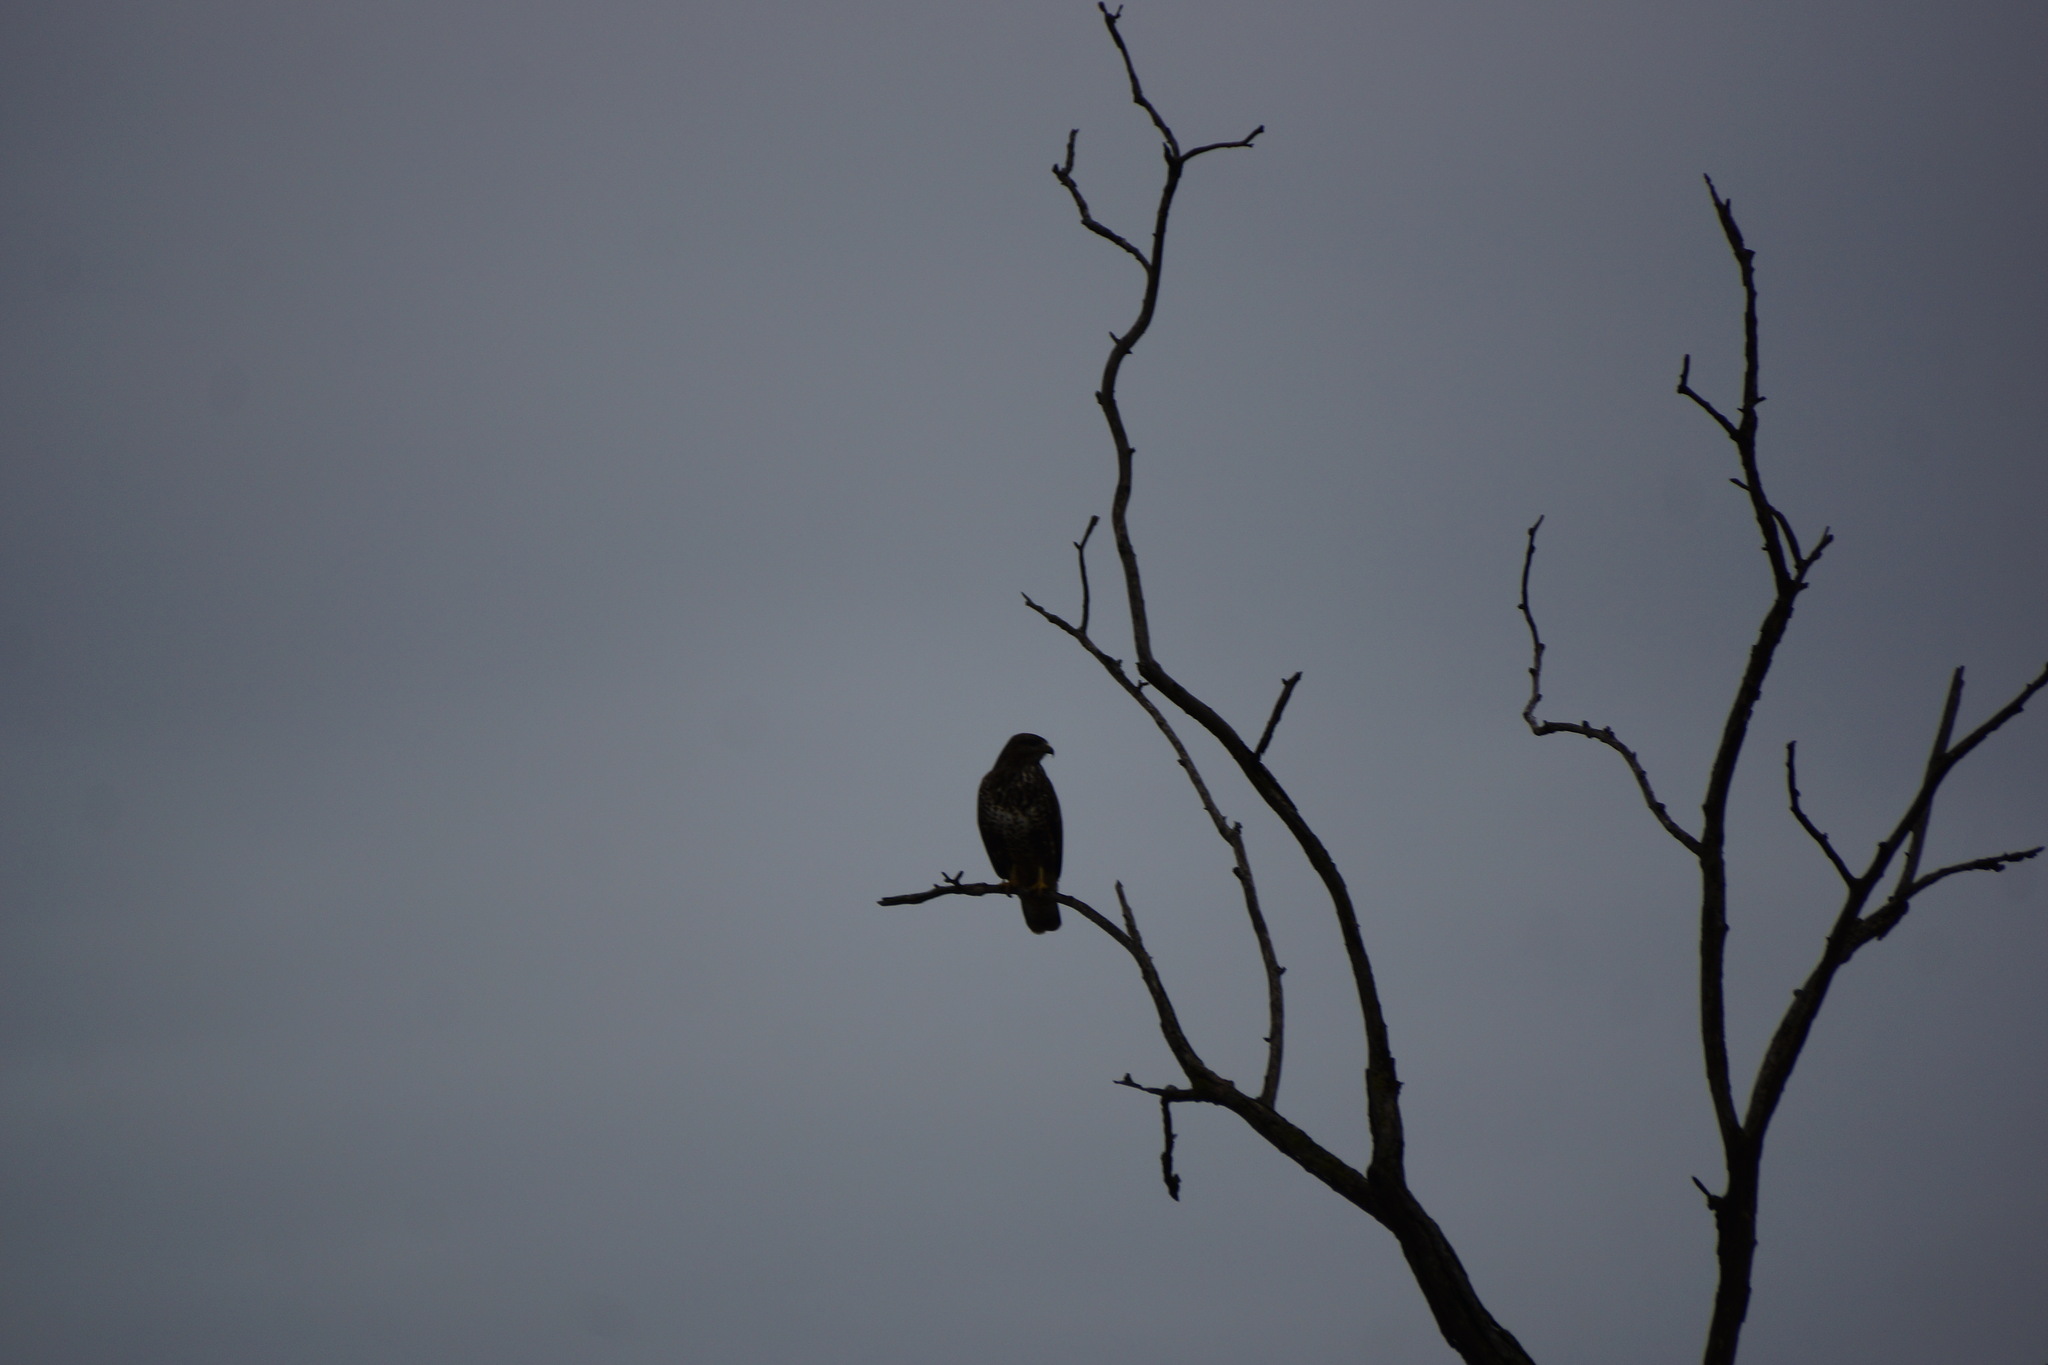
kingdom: Animalia
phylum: Chordata
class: Aves
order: Accipitriformes
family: Accipitridae
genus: Buteo
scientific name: Buteo buteo
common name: Common buzzard
